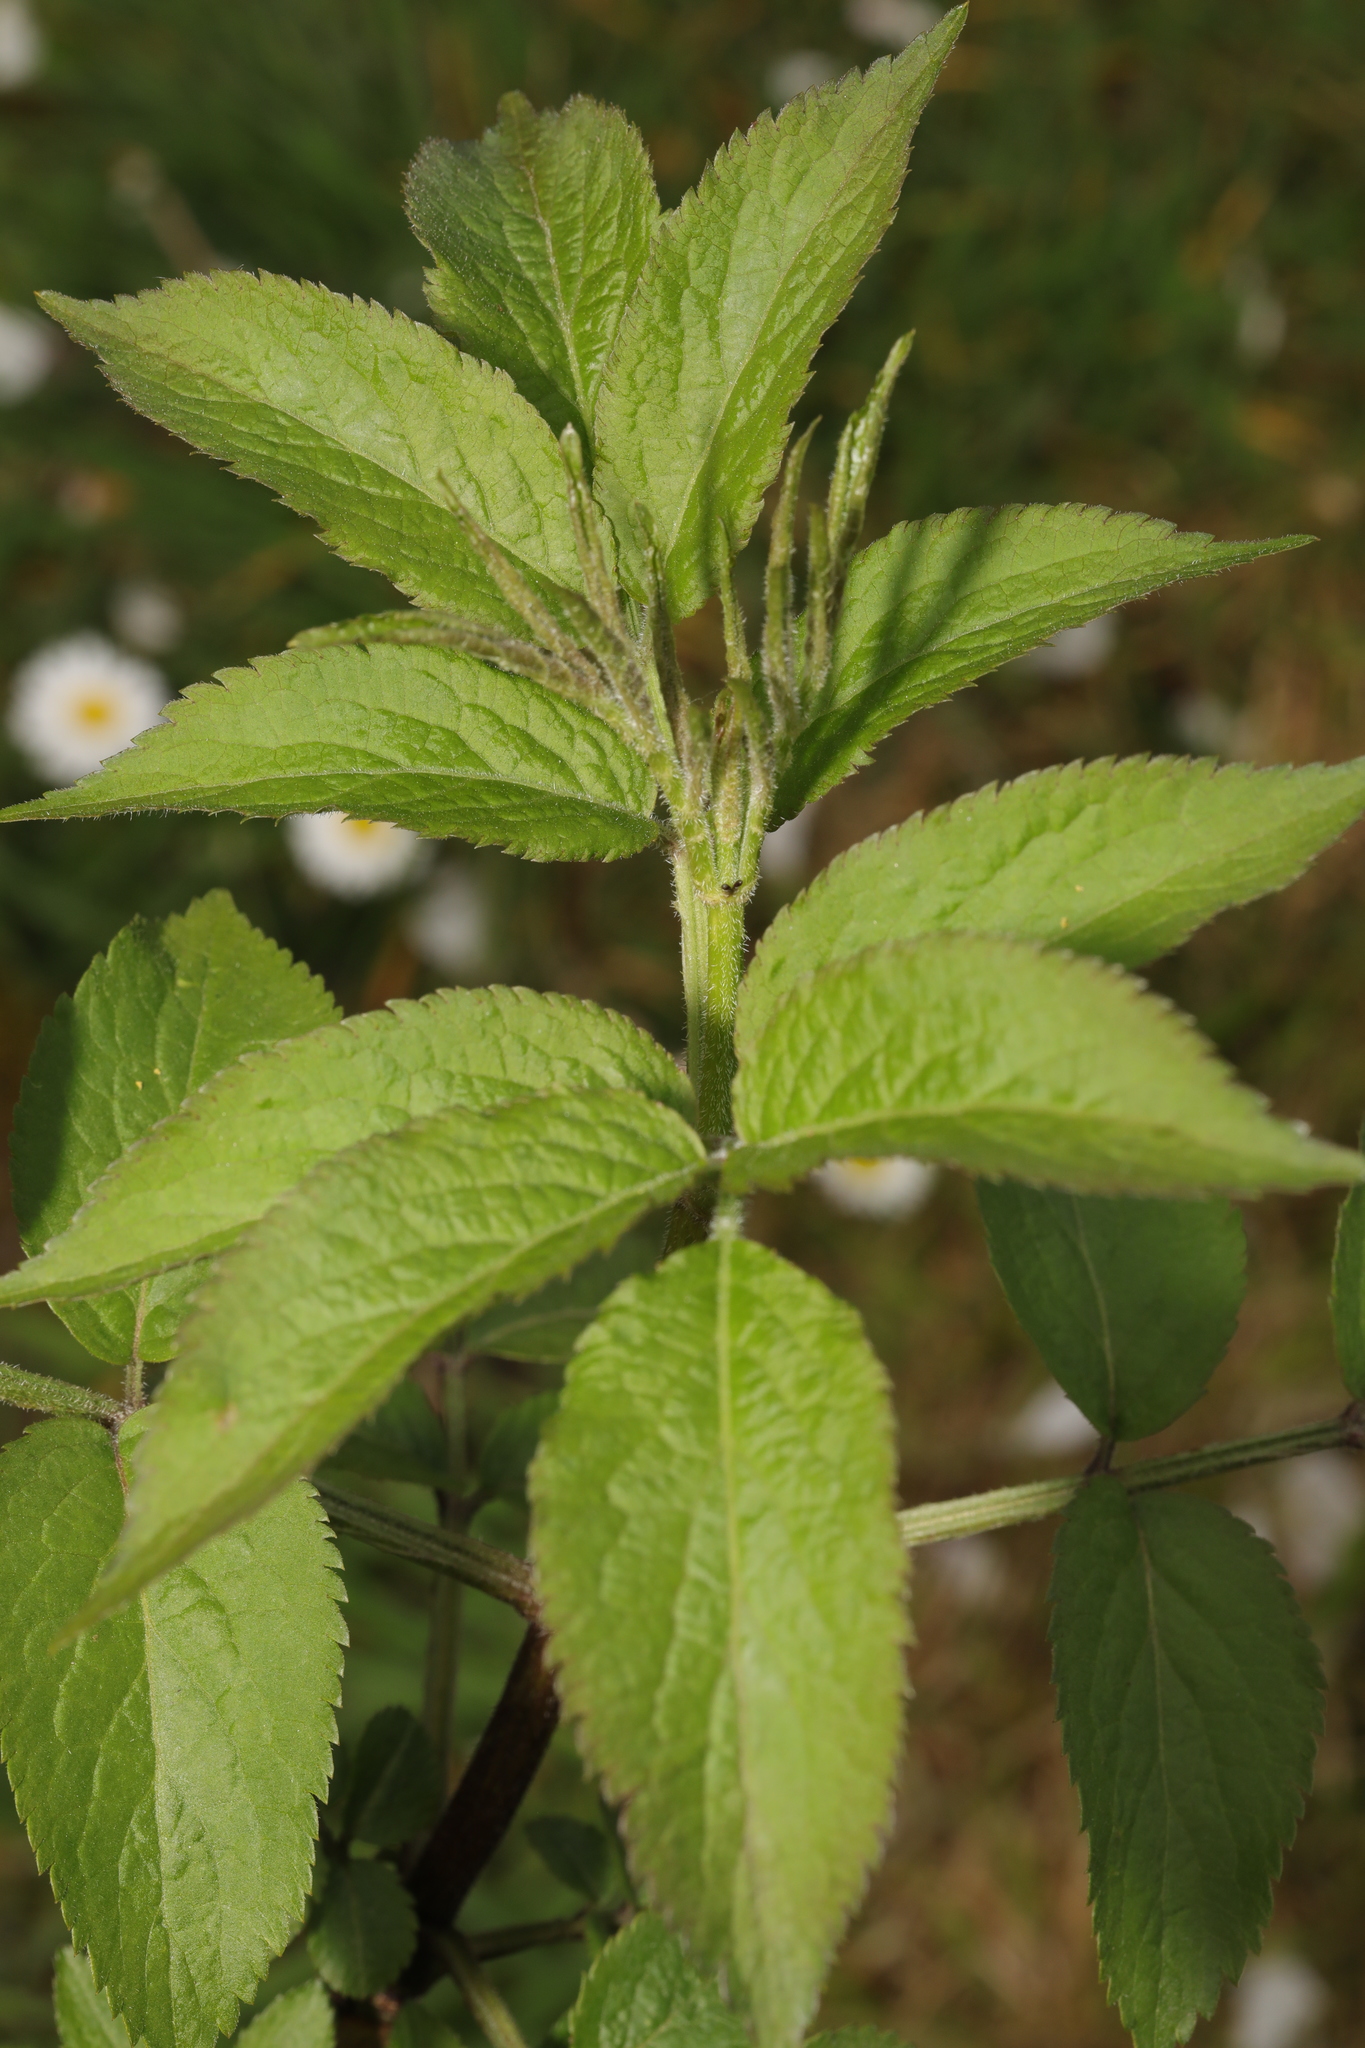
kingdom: Plantae
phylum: Tracheophyta
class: Magnoliopsida
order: Dipsacales
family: Viburnaceae
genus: Sambucus
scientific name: Sambucus nigra
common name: Elder
